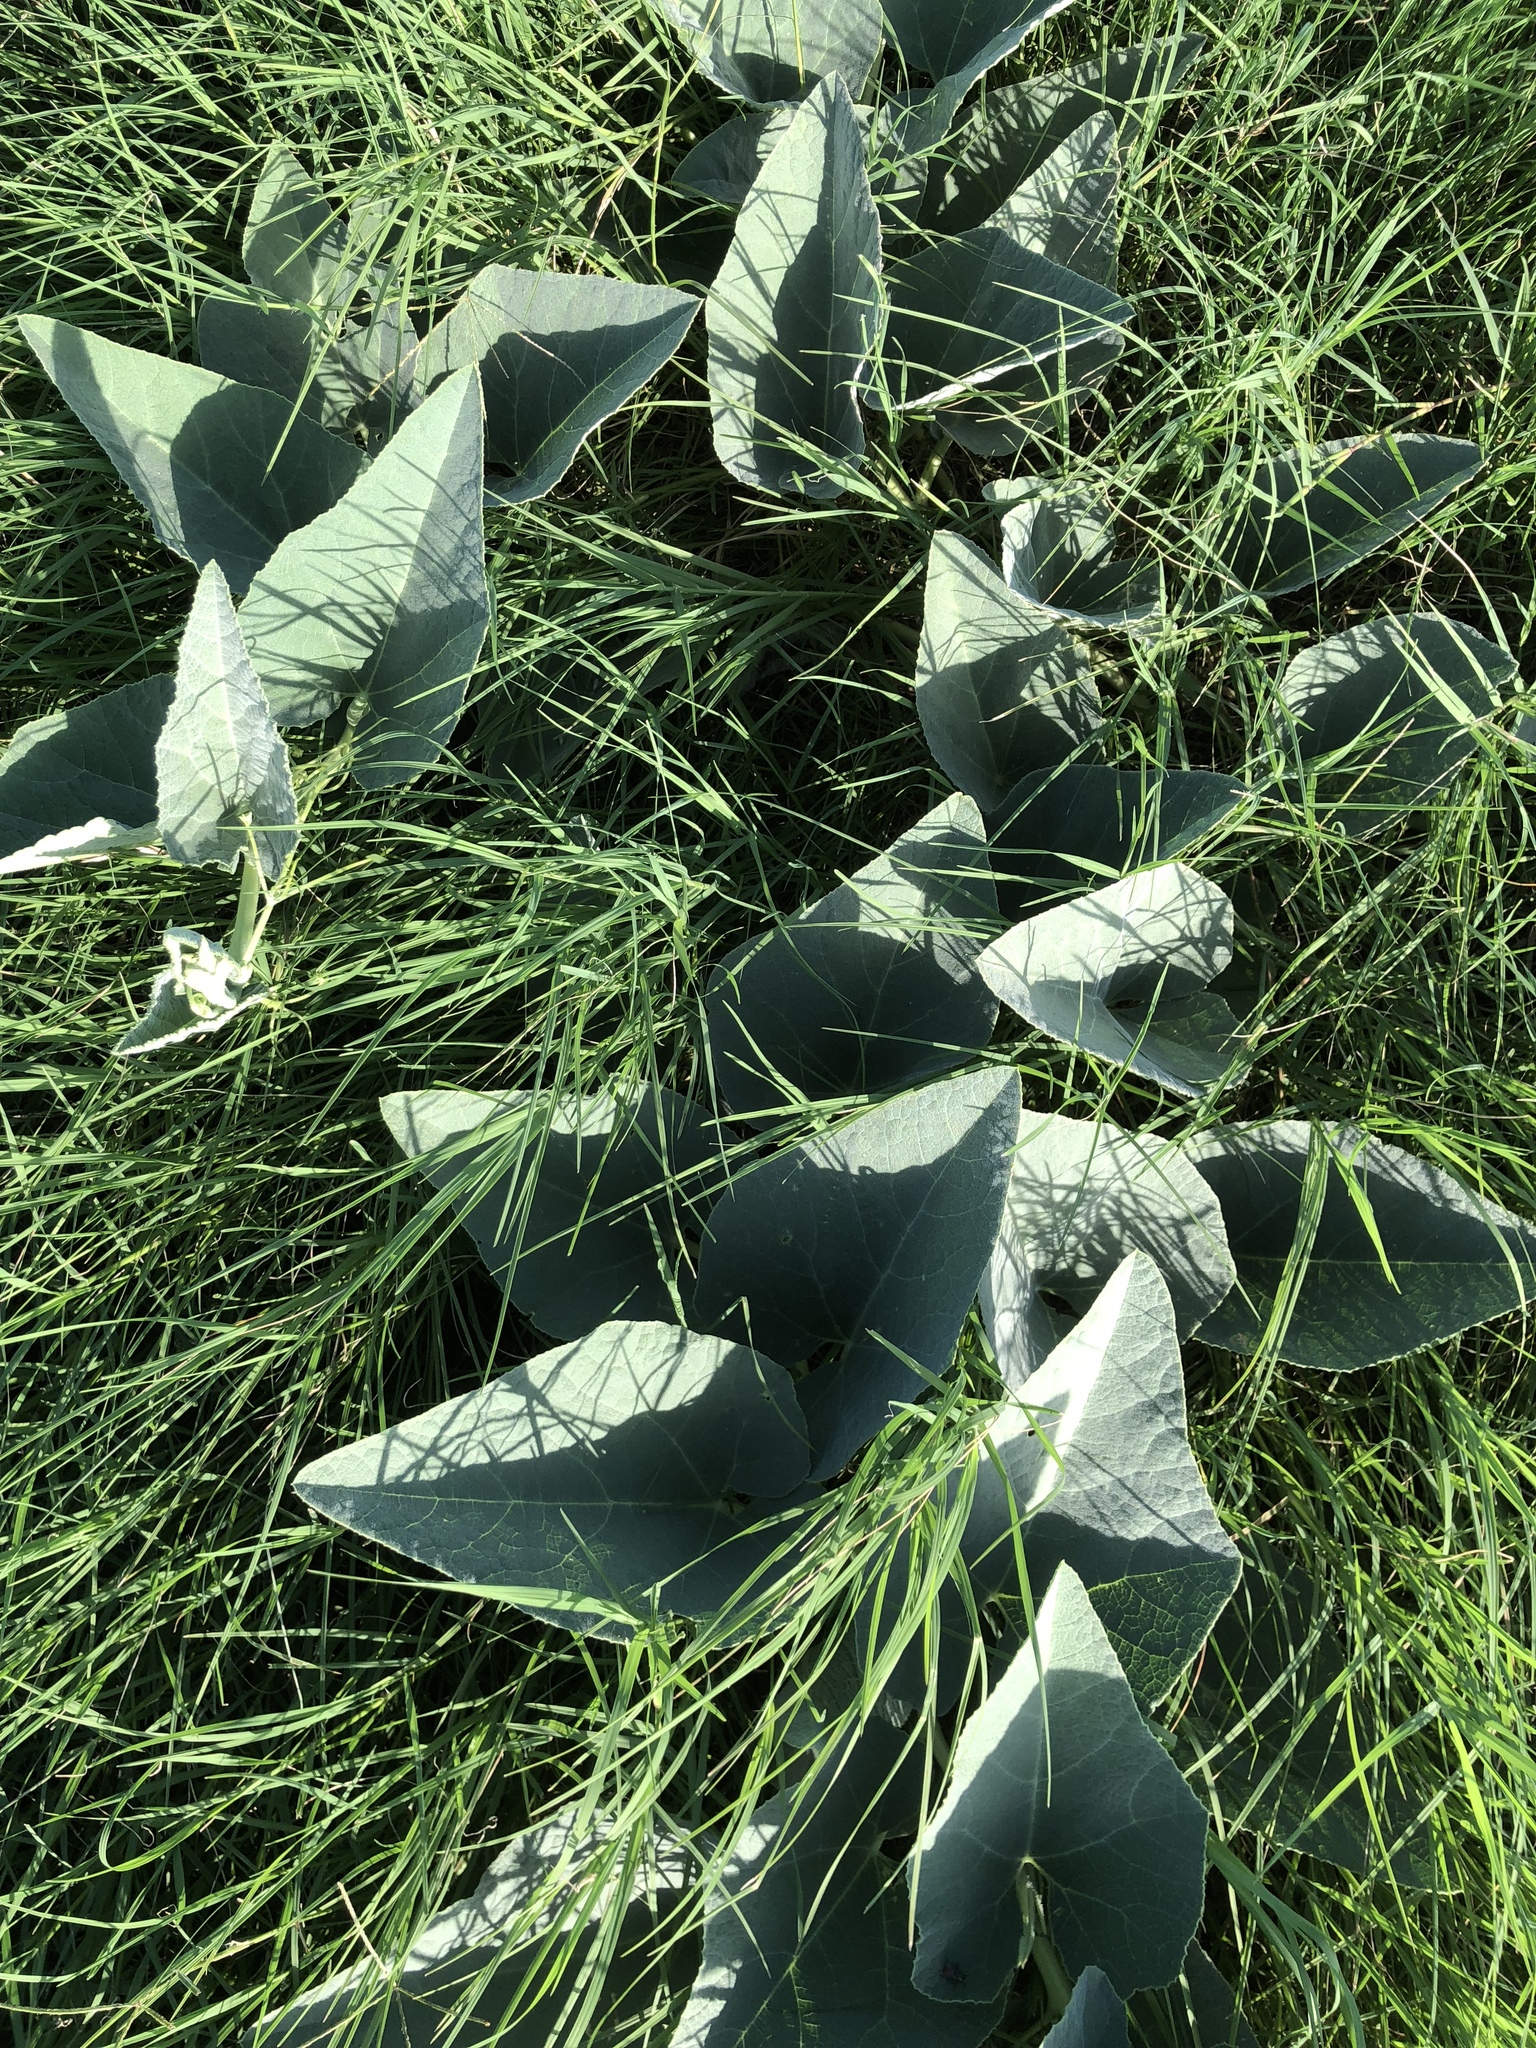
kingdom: Plantae
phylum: Tracheophyta
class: Magnoliopsida
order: Cucurbitales
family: Cucurbitaceae
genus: Cucurbita
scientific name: Cucurbita foetidissima
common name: Buffalo gourd
